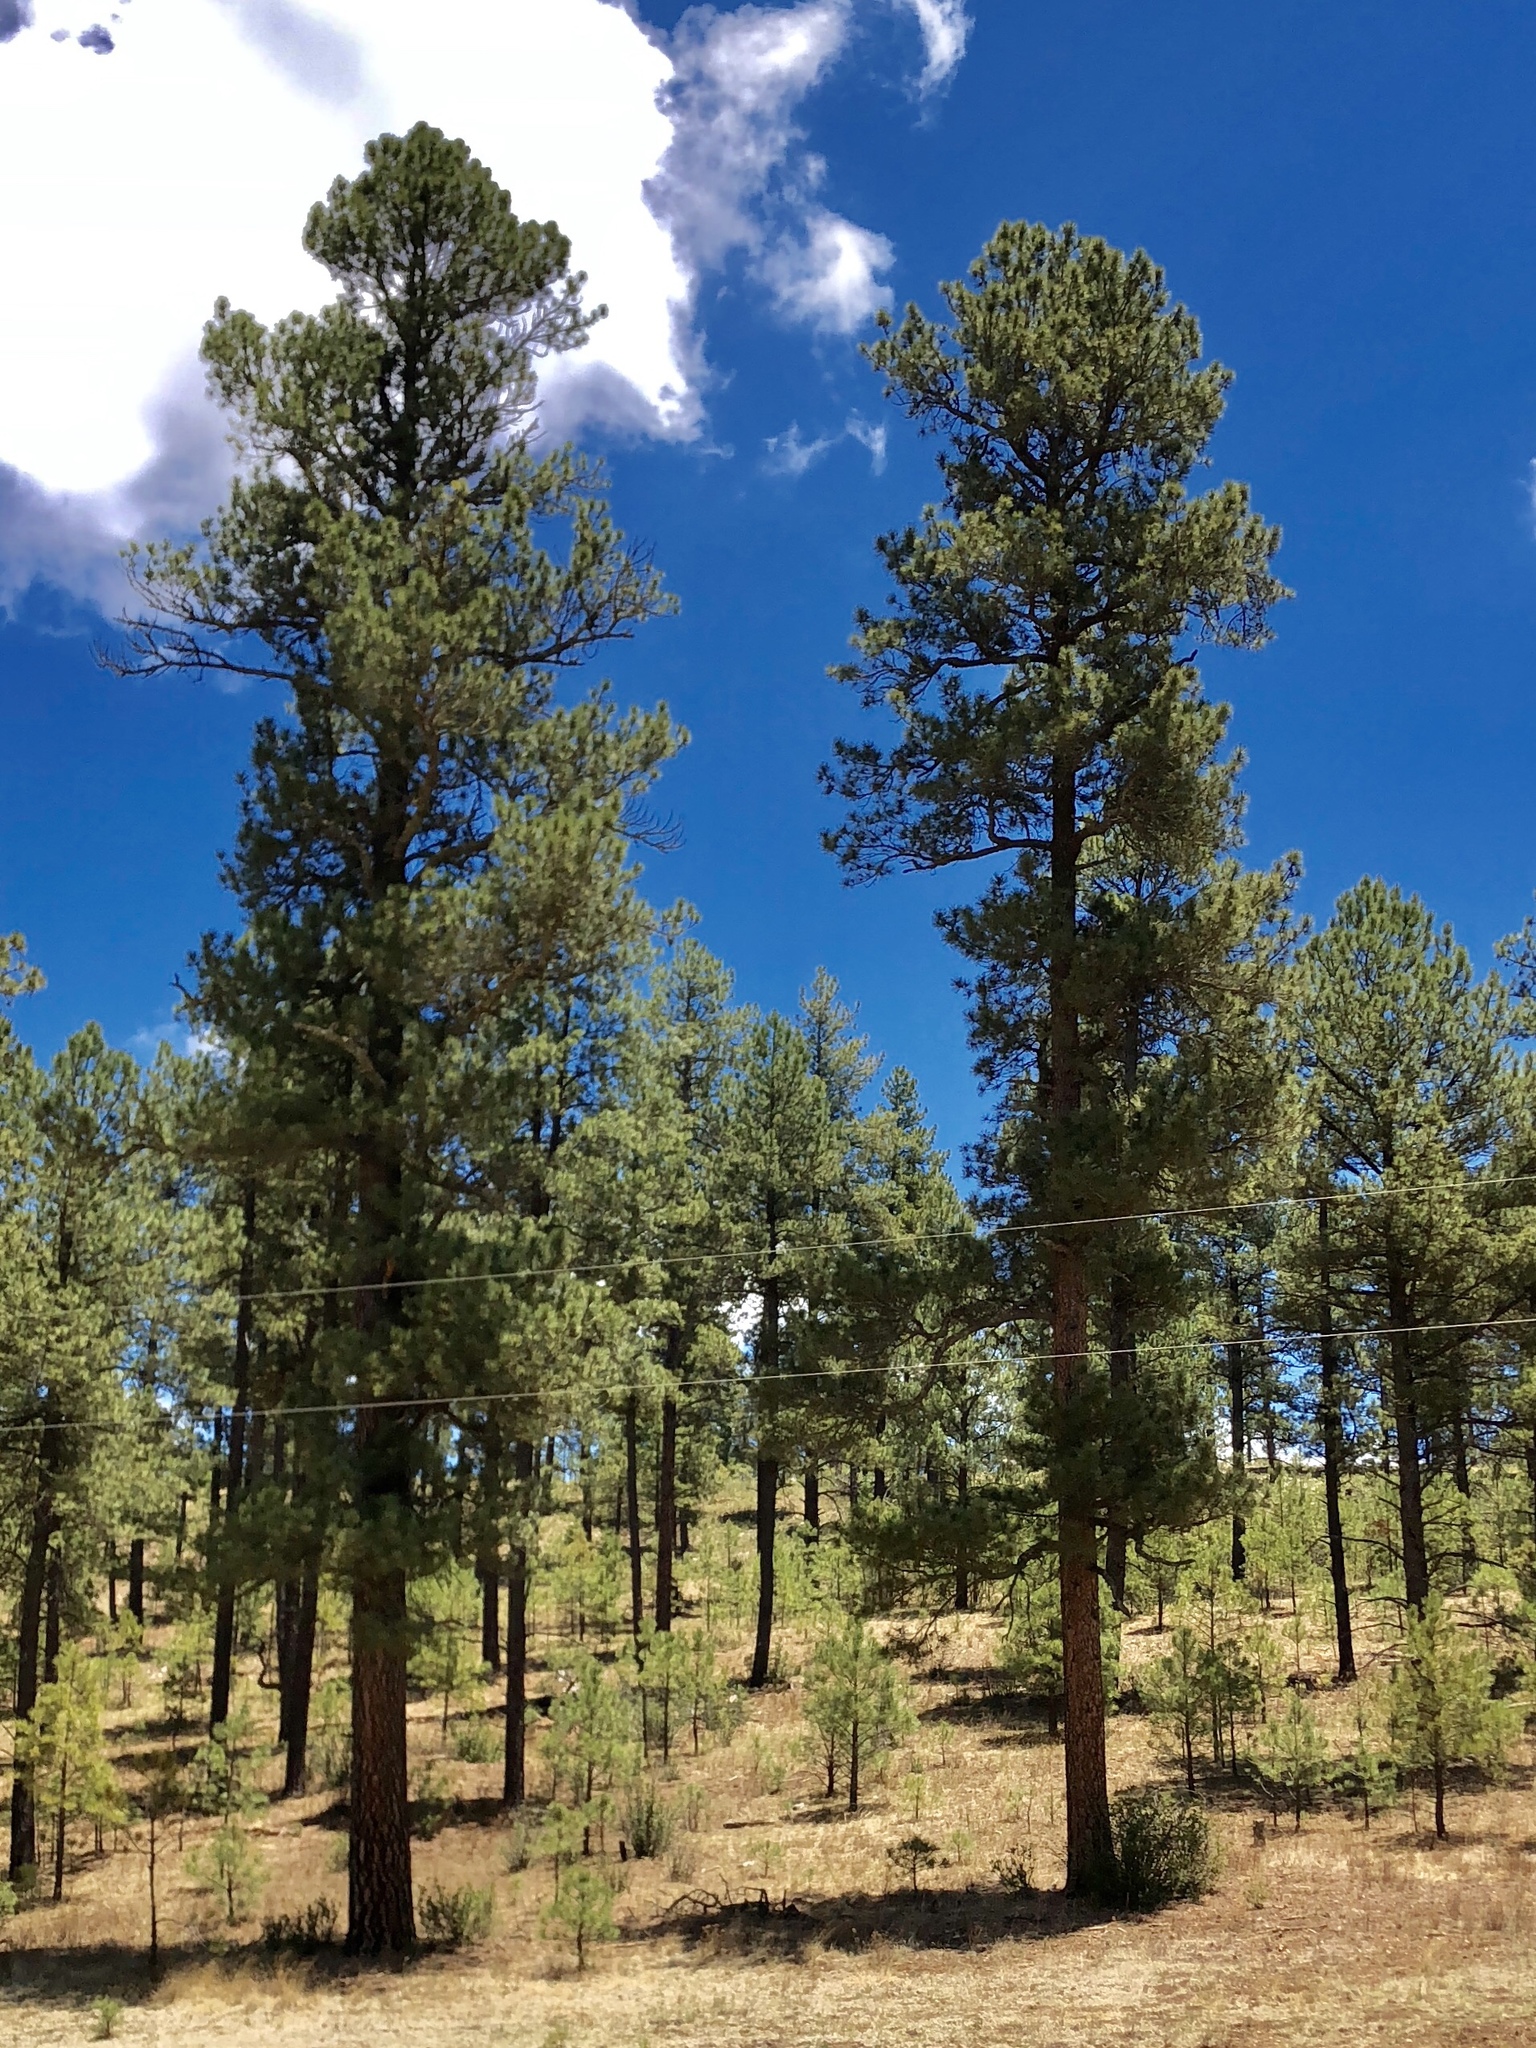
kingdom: Plantae
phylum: Tracheophyta
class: Pinopsida
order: Pinales
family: Pinaceae
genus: Pinus
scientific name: Pinus ponderosa
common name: Western yellow-pine
